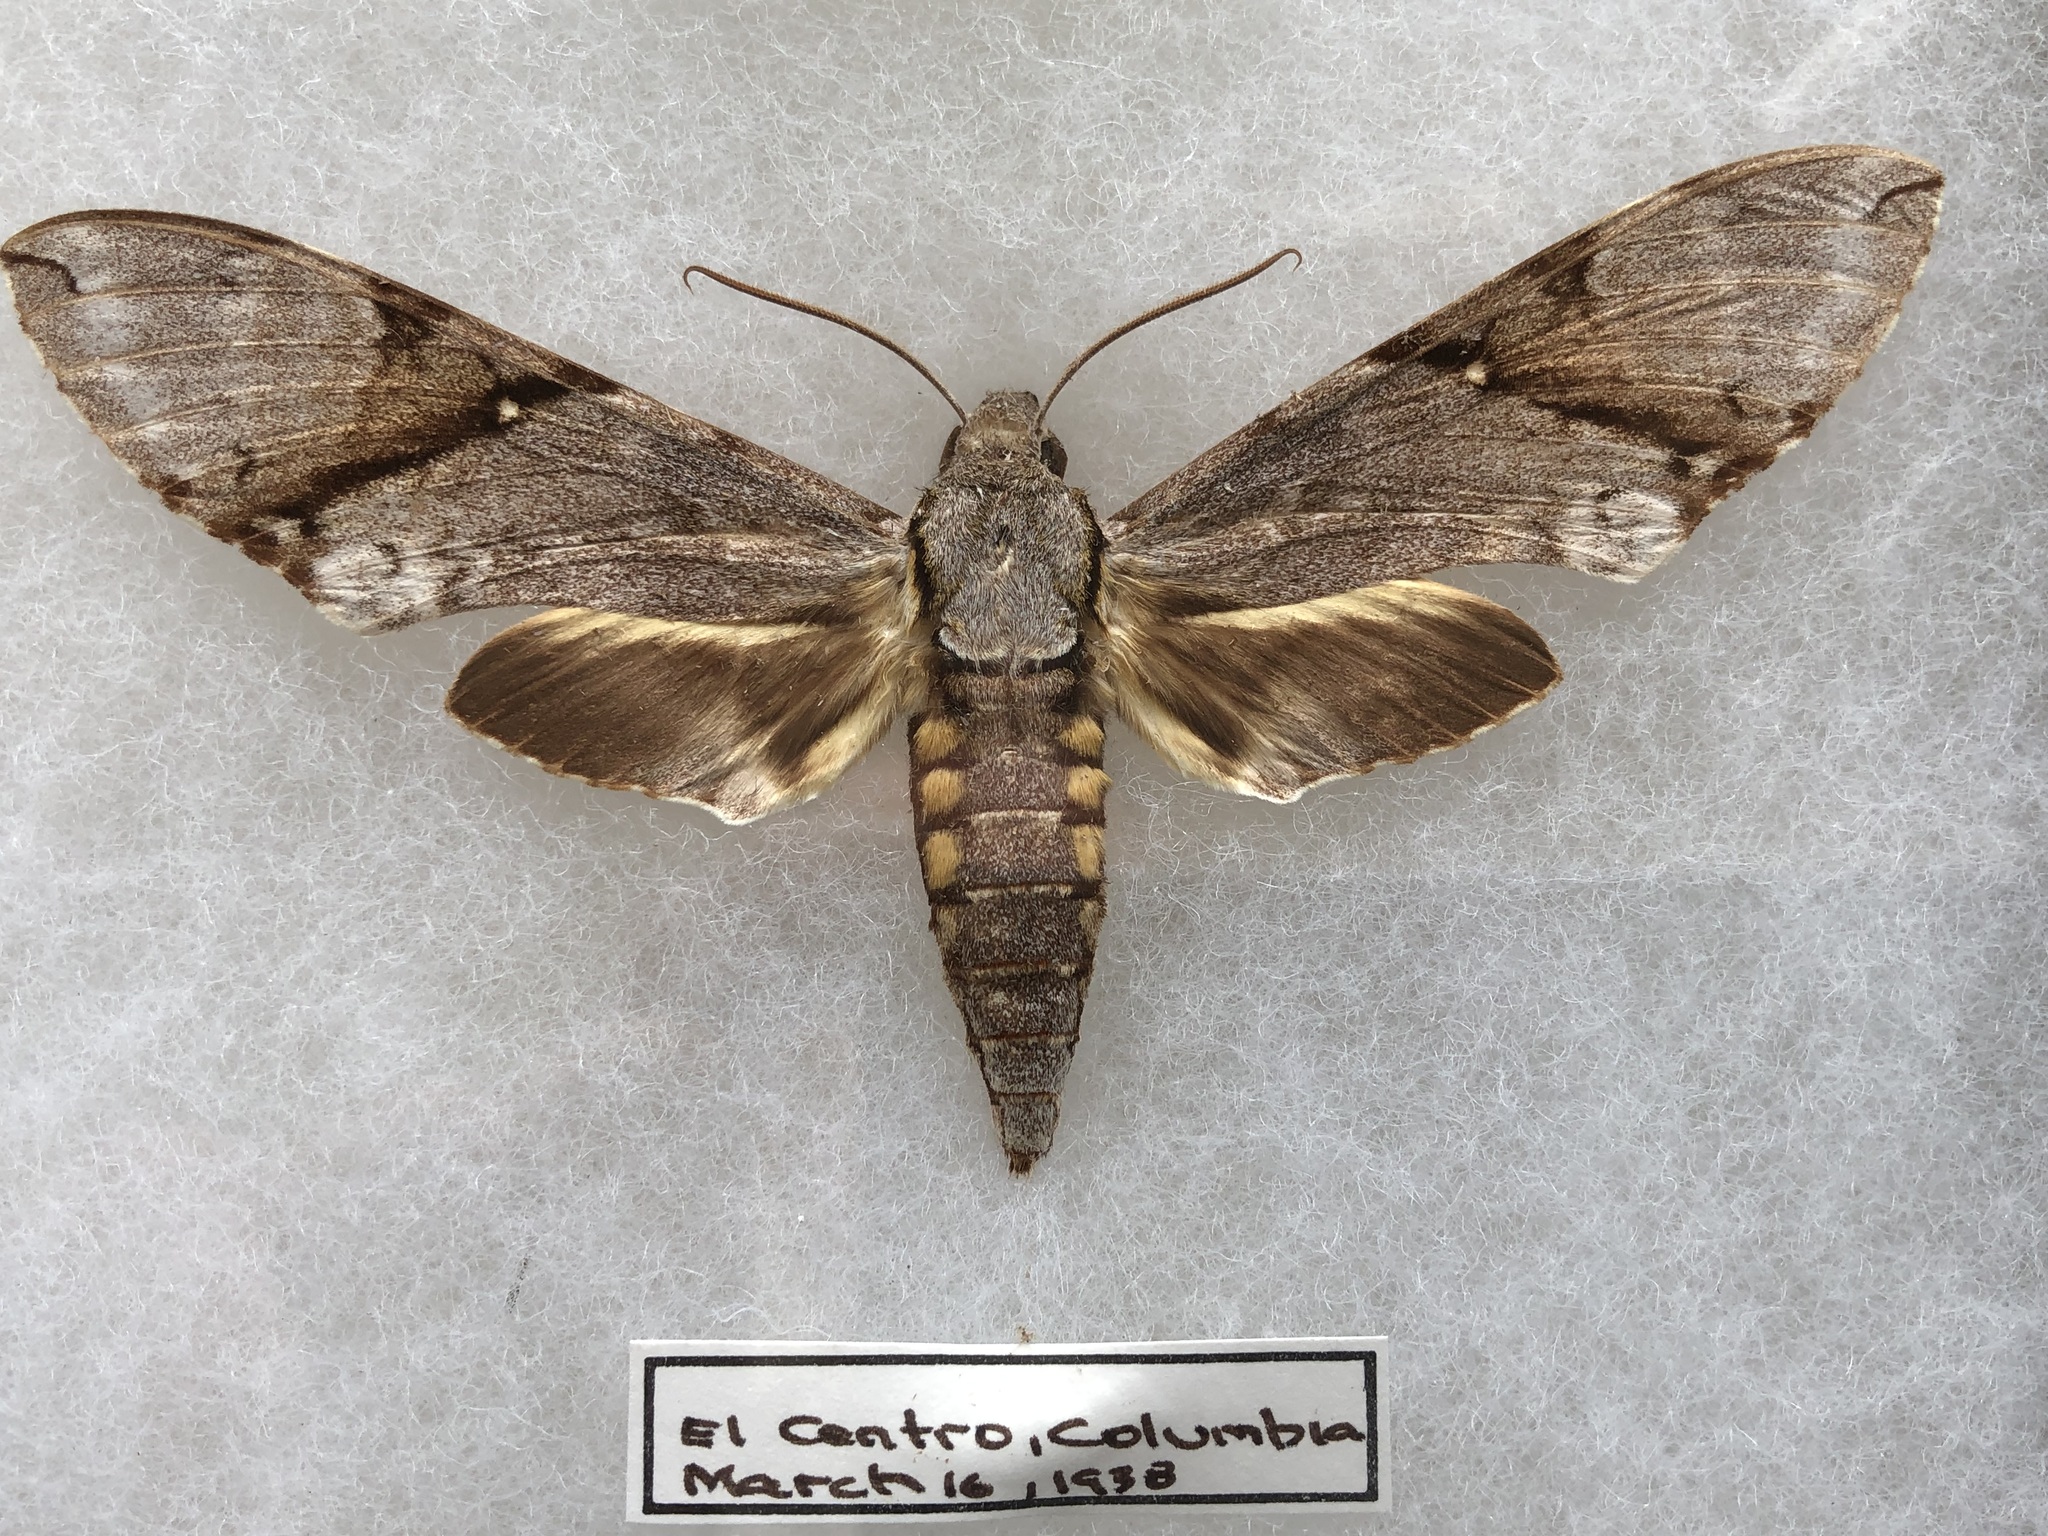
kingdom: Animalia
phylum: Arthropoda
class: Insecta
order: Lepidoptera
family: Sphingidae
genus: Manduca
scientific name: Manduca lefeburii
